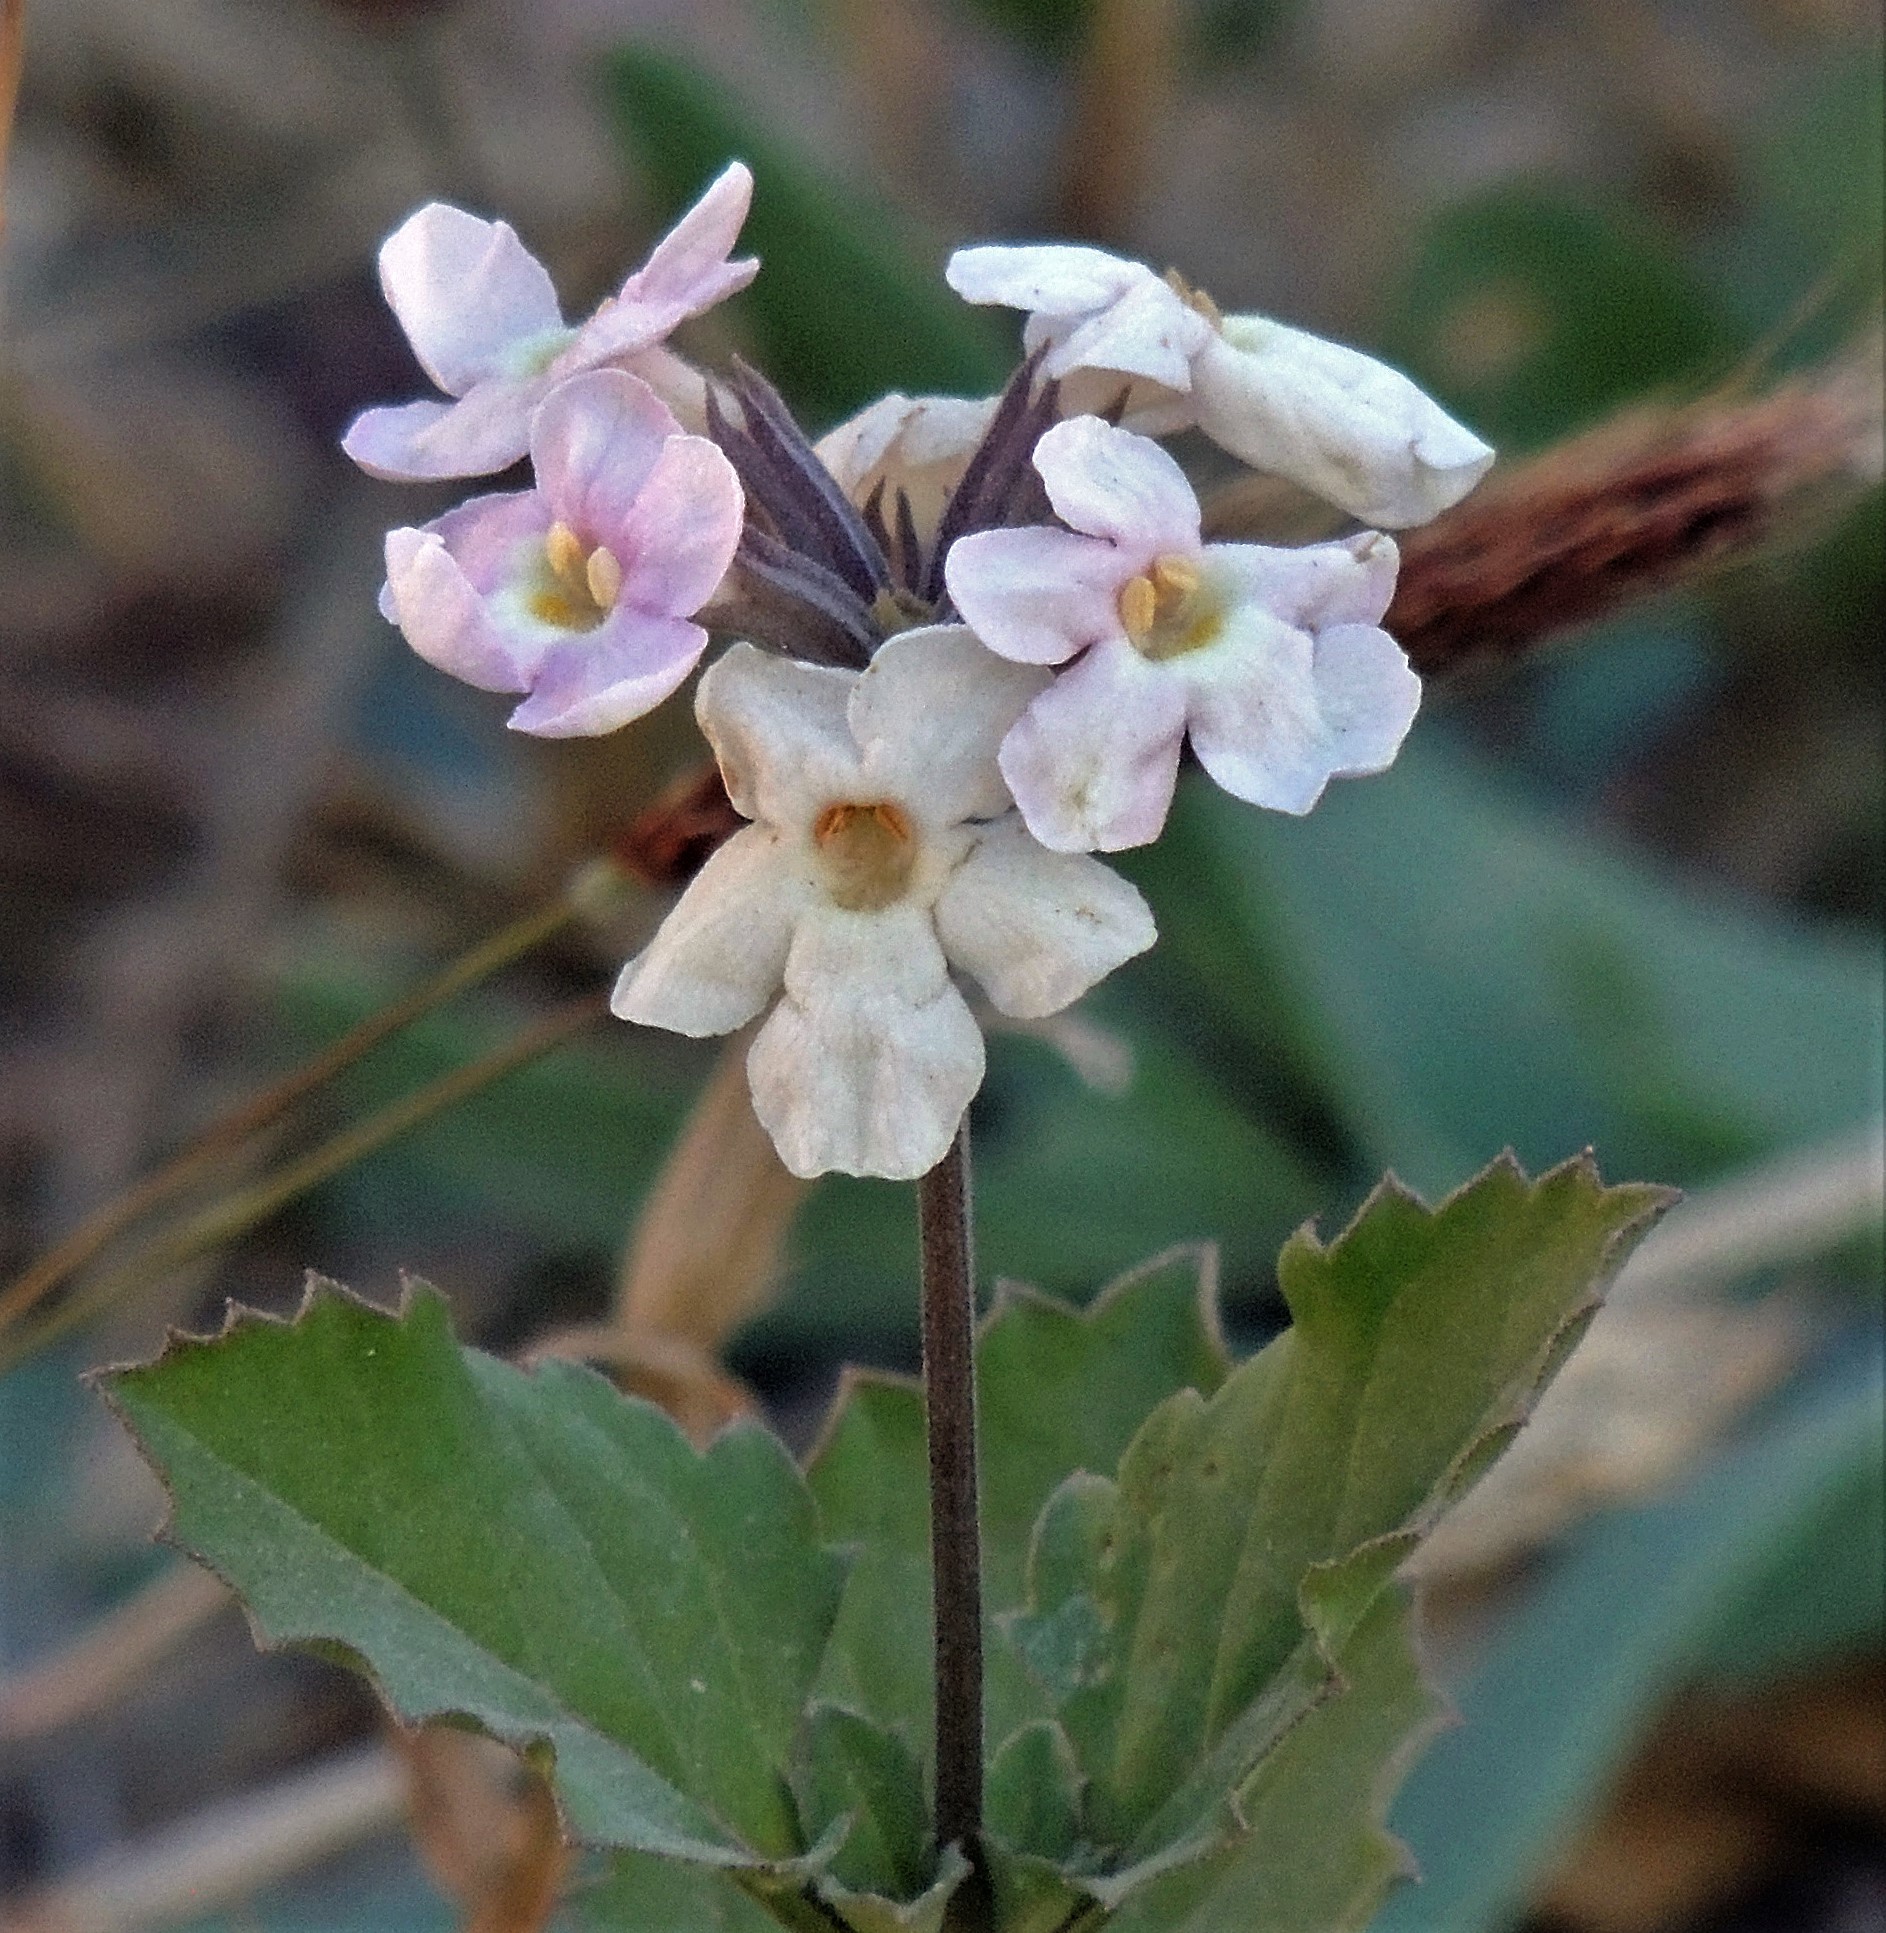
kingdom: Plantae
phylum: Tracheophyta
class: Magnoliopsida
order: Lamiales
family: Verbenaceae
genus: Pitraea
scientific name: Pitraea cuneato-ovata
